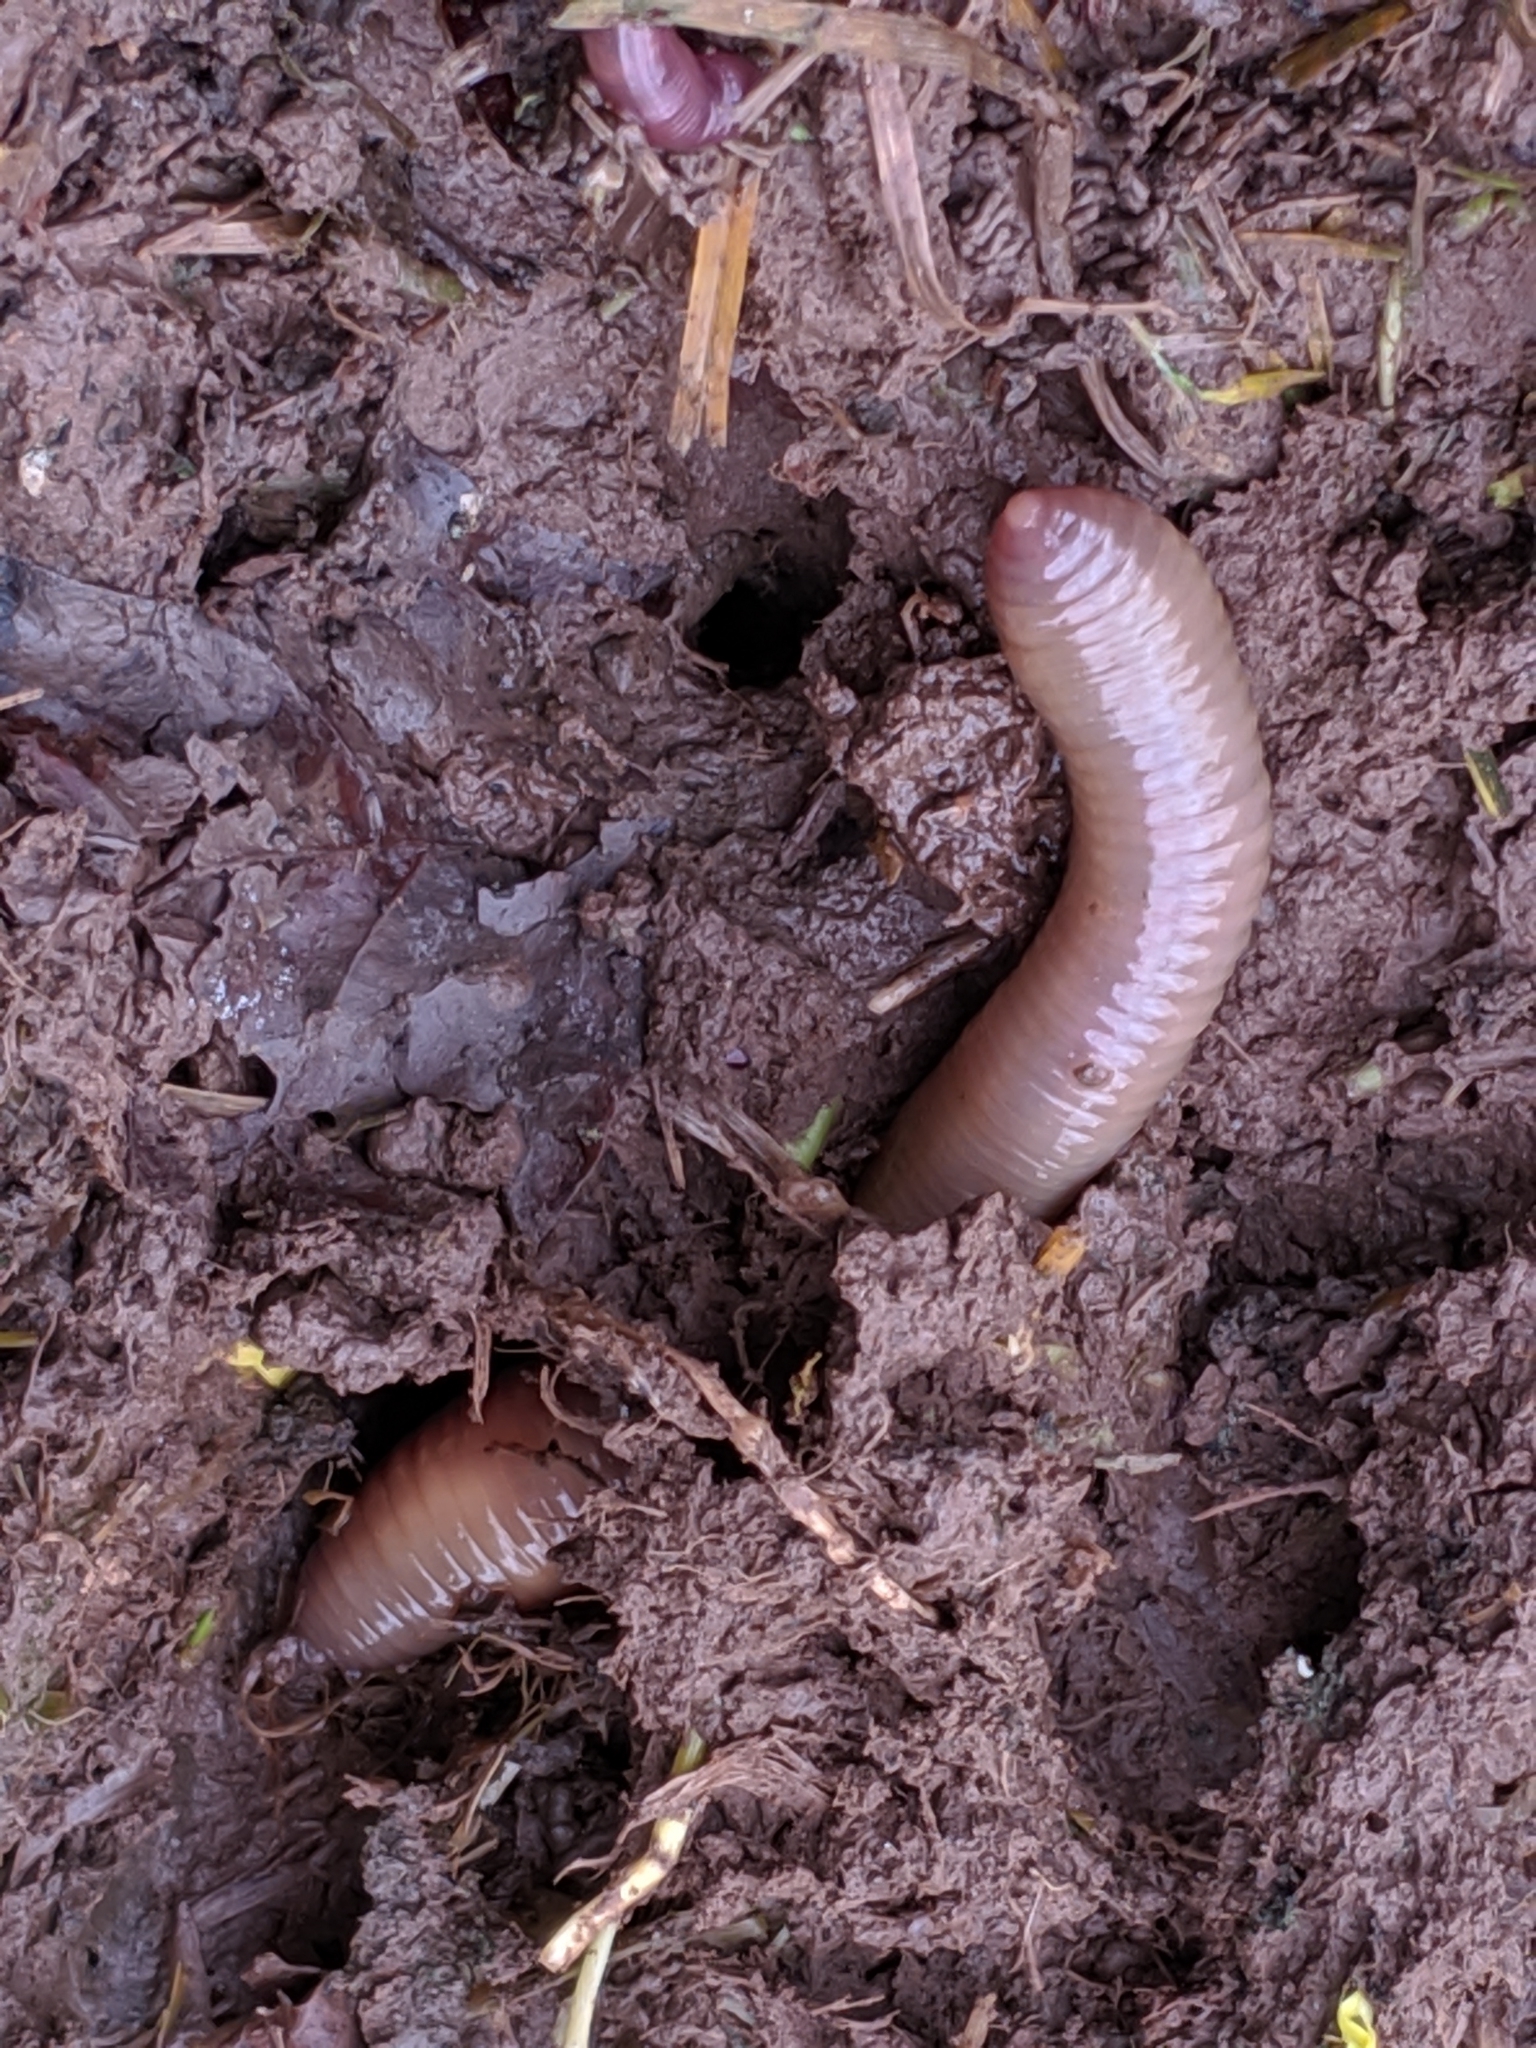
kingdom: Animalia
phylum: Annelida
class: Clitellata
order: Crassiclitellata
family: Lumbricidae
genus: Lumbricus
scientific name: Lumbricus terrestris
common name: Common earthworm
